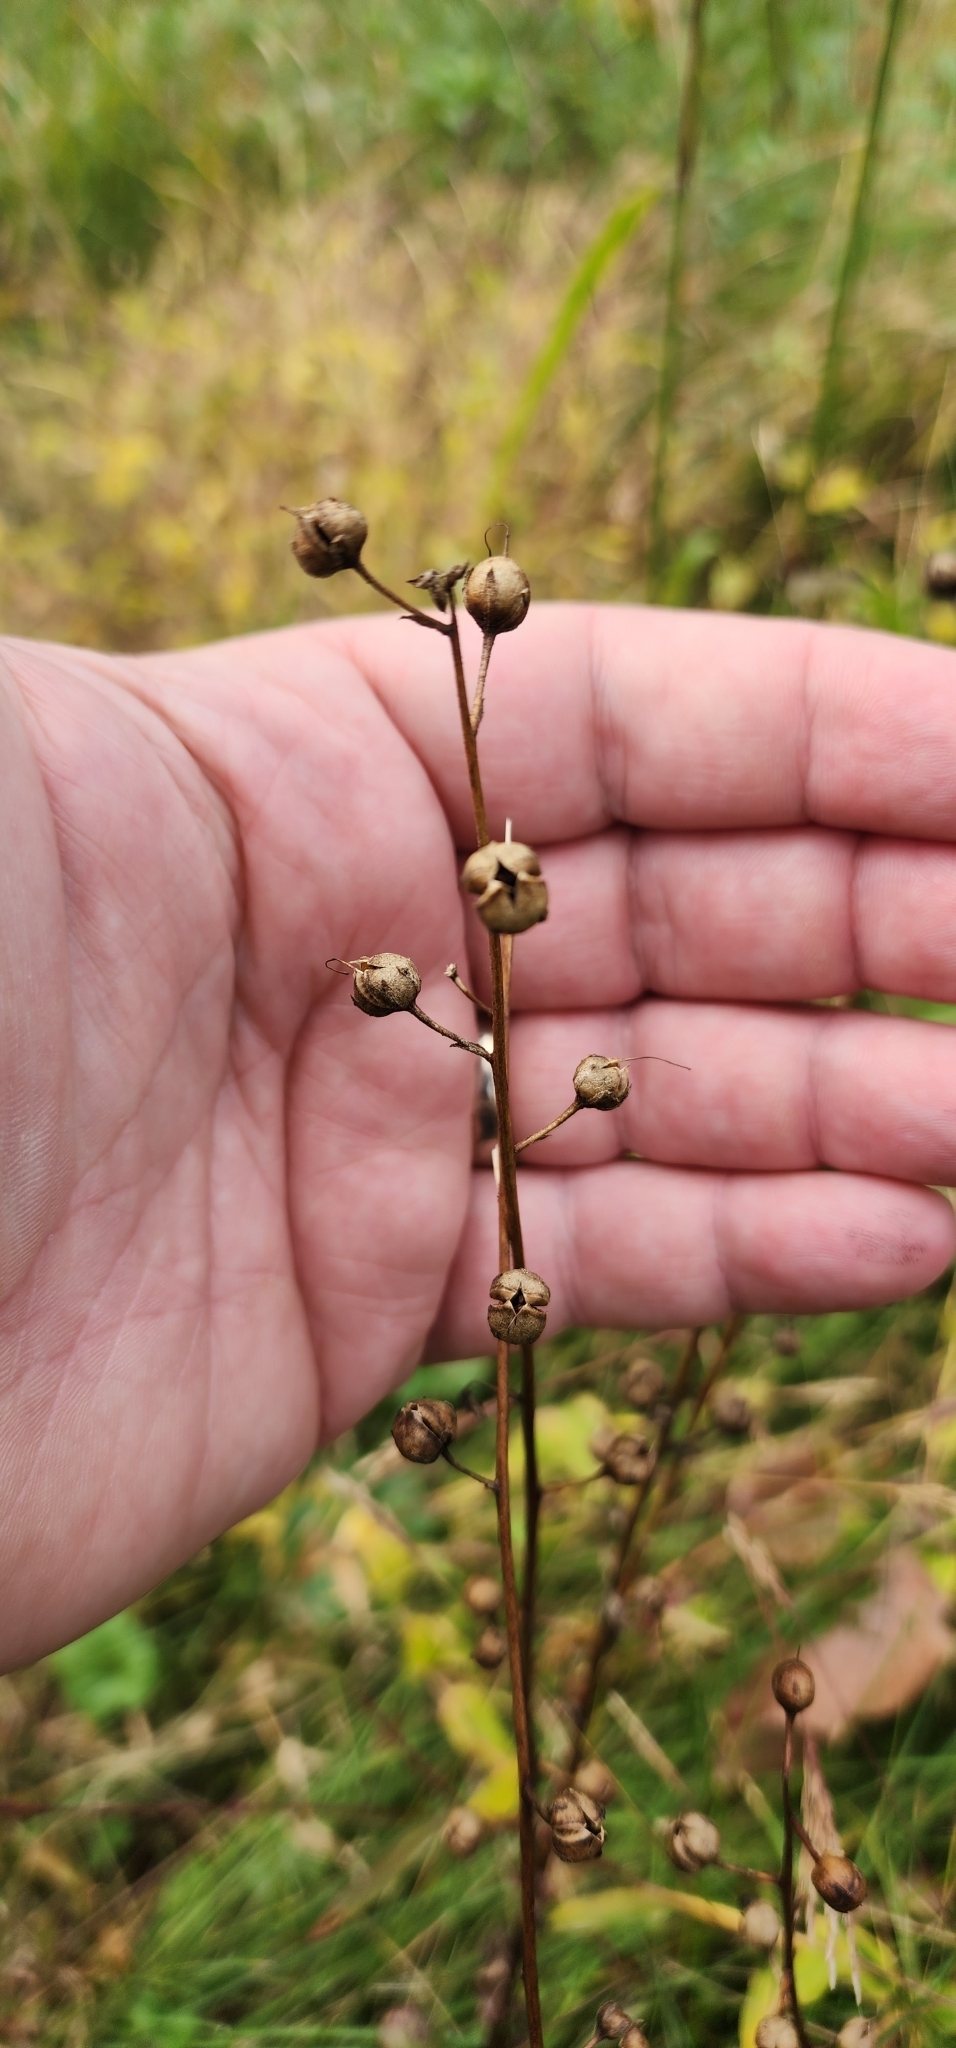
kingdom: Plantae
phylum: Tracheophyta
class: Magnoliopsida
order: Lamiales
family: Scrophulariaceae
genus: Verbascum
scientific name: Verbascum blattaria
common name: Moth mullein
